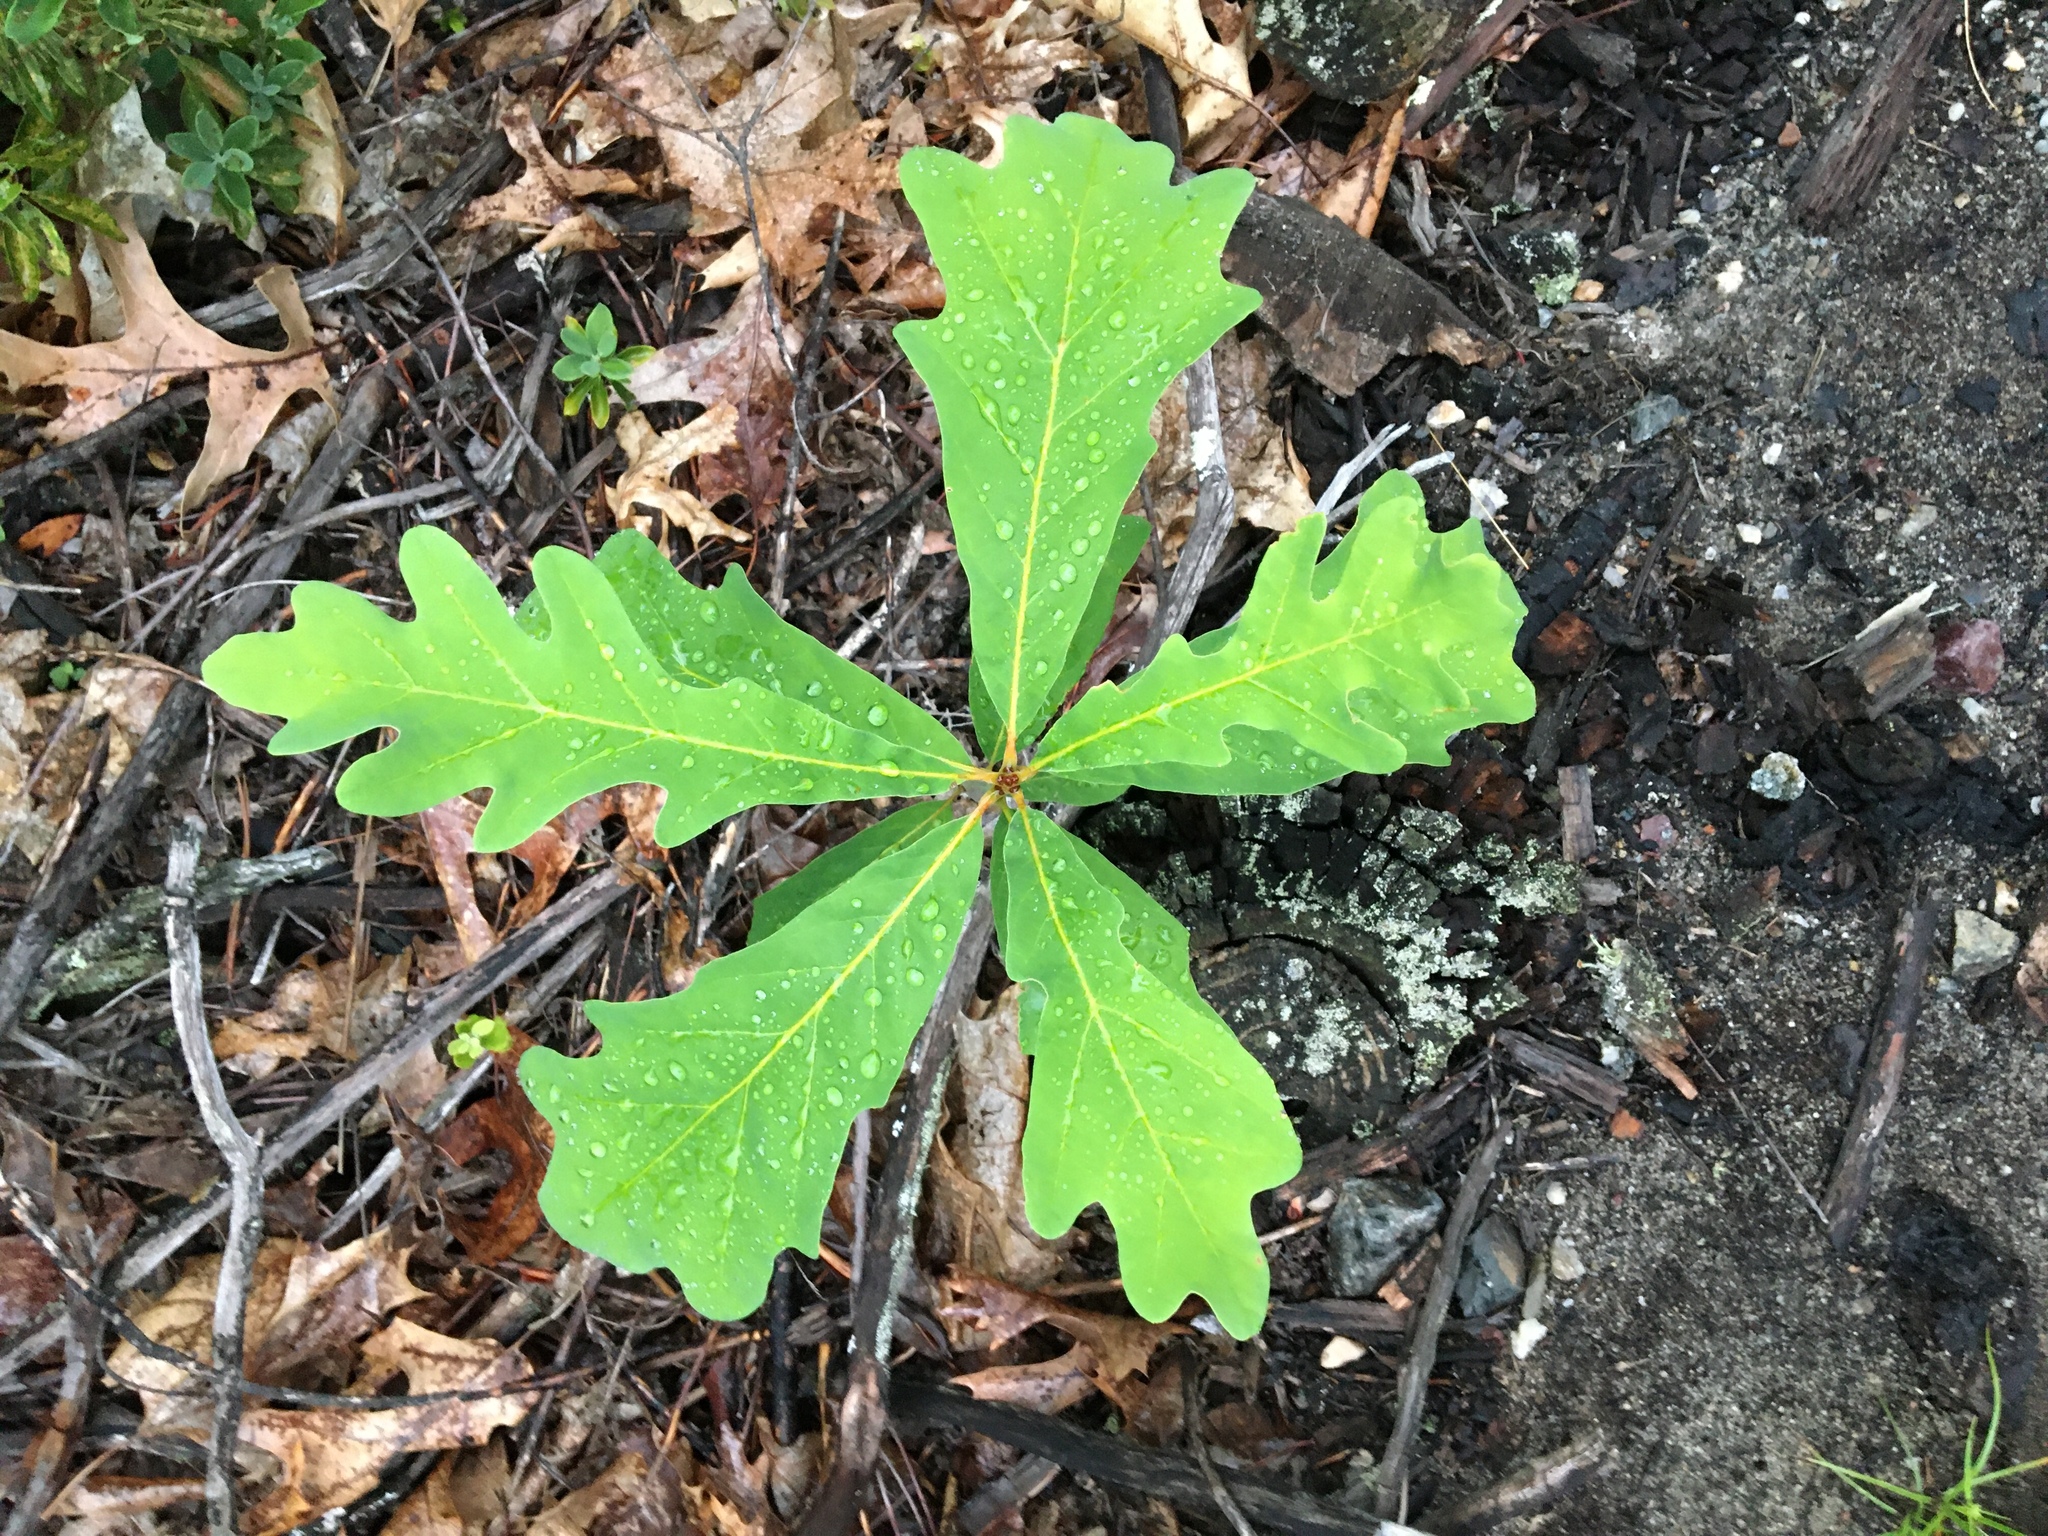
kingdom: Plantae
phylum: Tracheophyta
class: Magnoliopsida
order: Fagales
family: Fagaceae
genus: Quercus
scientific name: Quercus alba
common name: White oak
